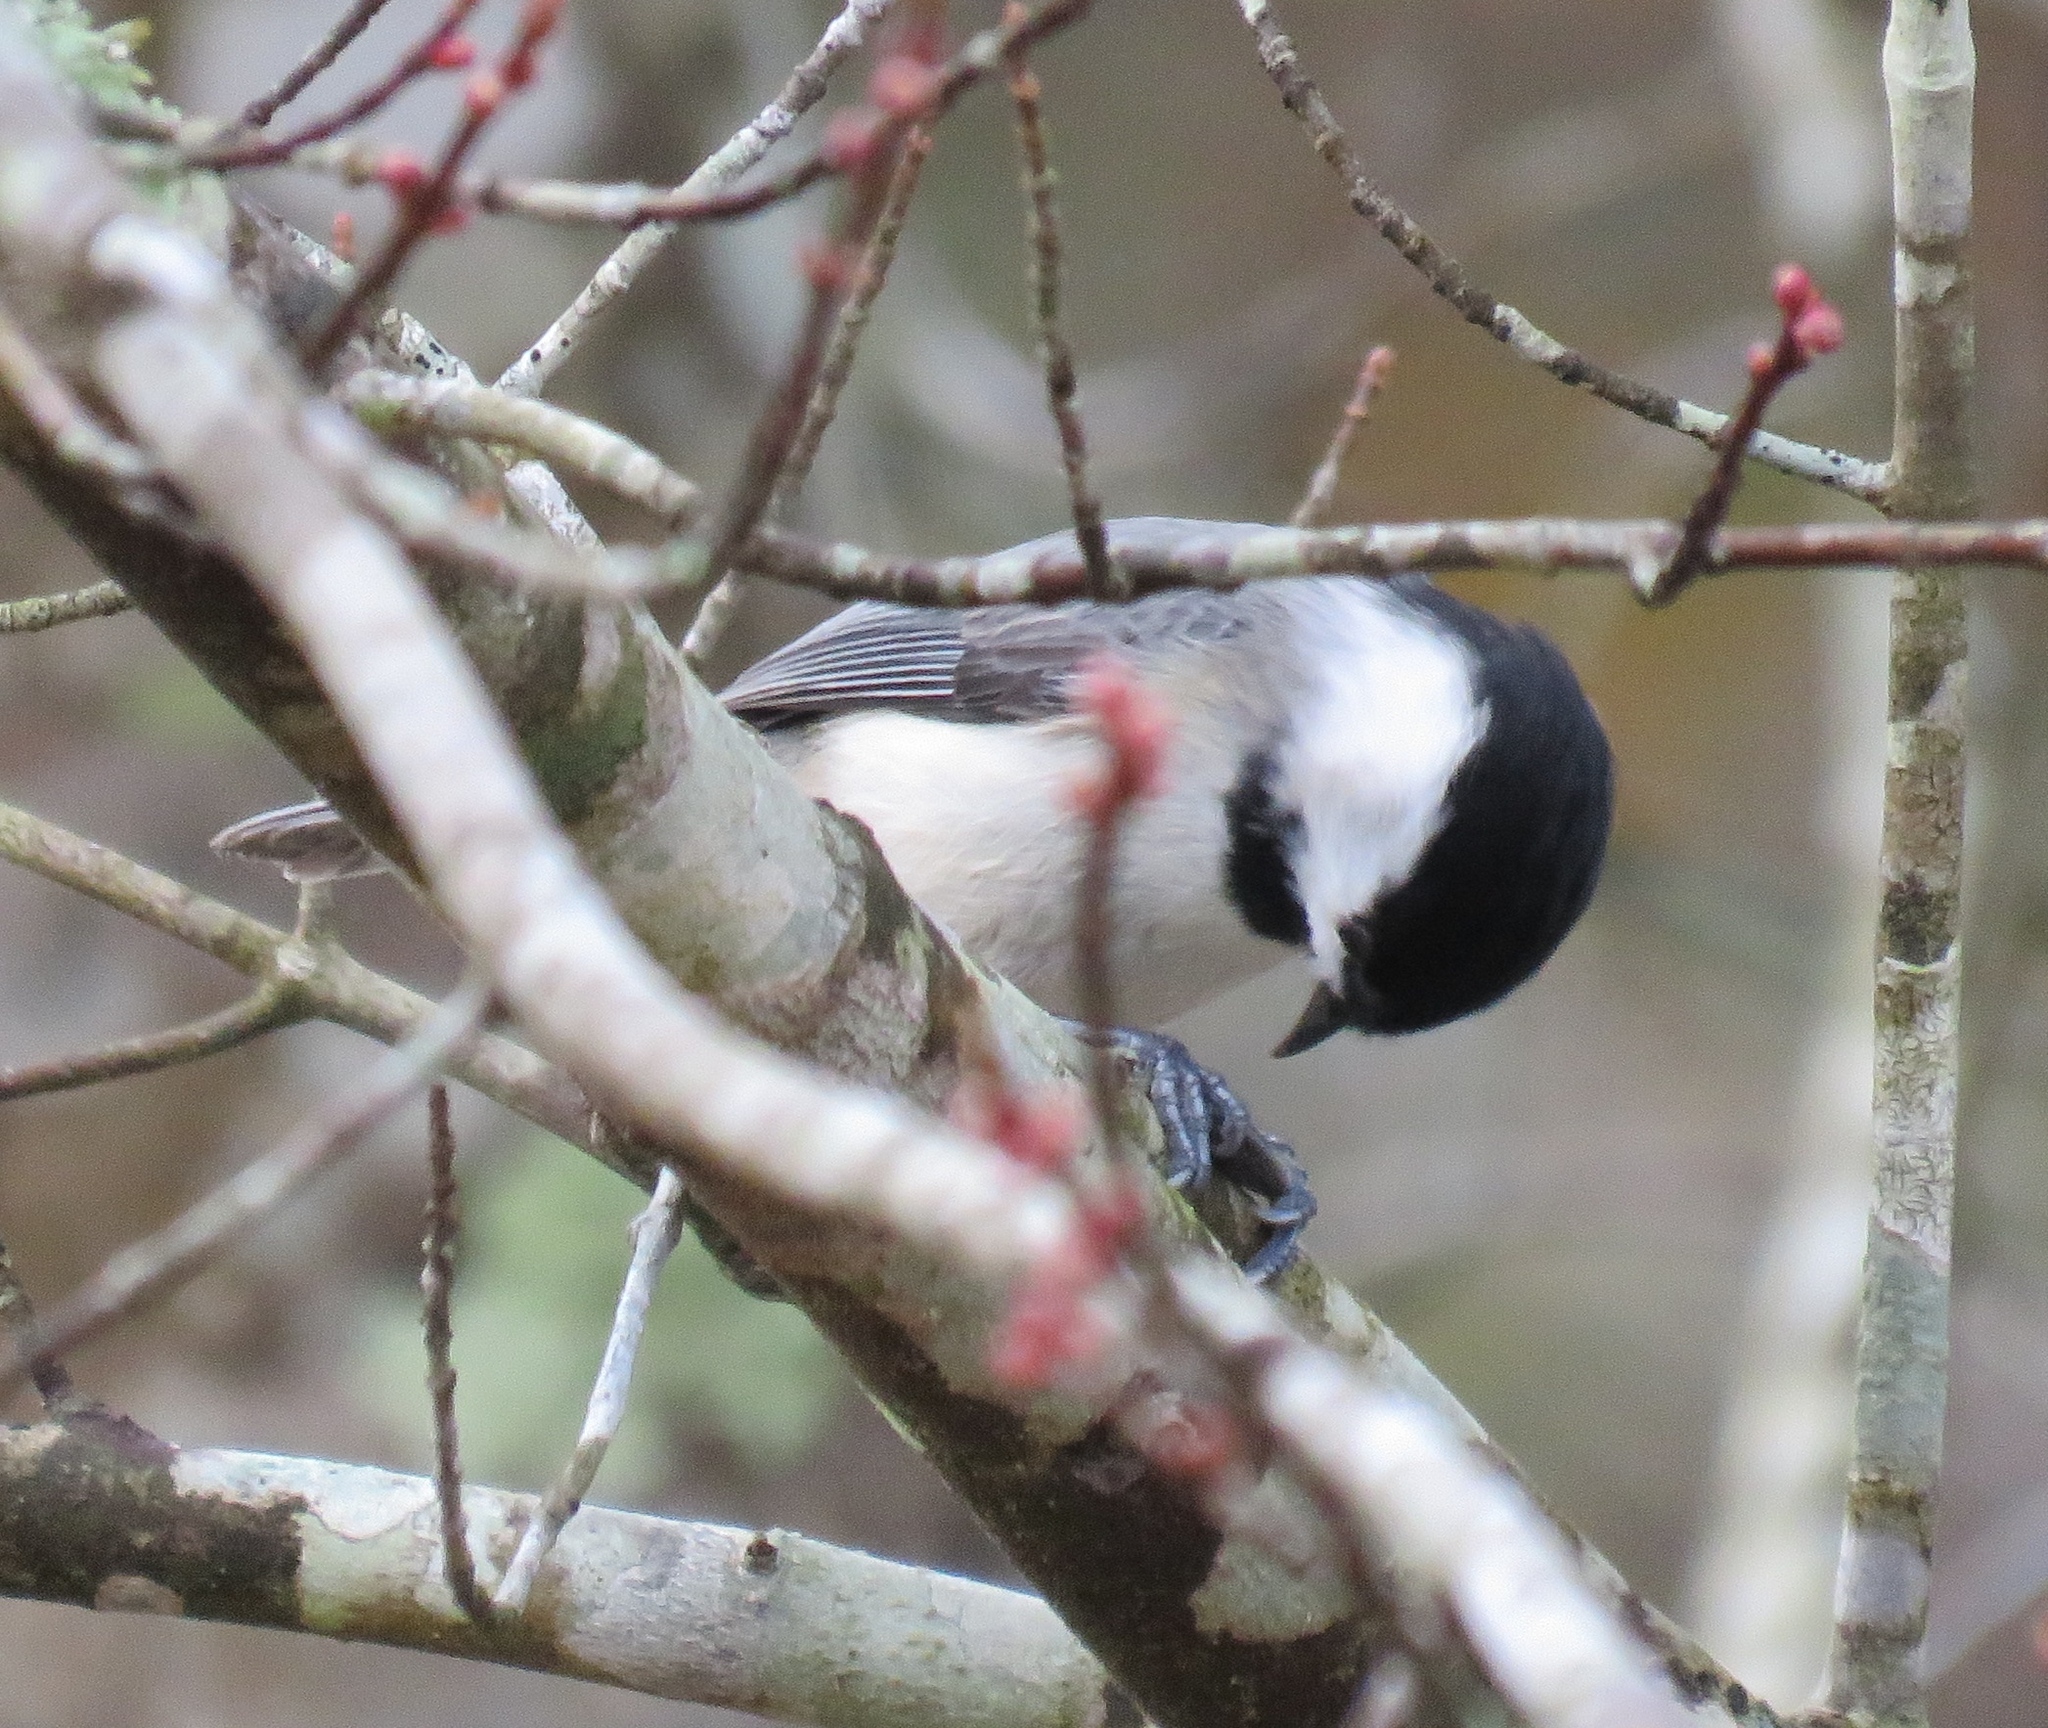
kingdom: Animalia
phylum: Chordata
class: Aves
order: Passeriformes
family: Paridae
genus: Poecile
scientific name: Poecile carolinensis
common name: Carolina chickadee
